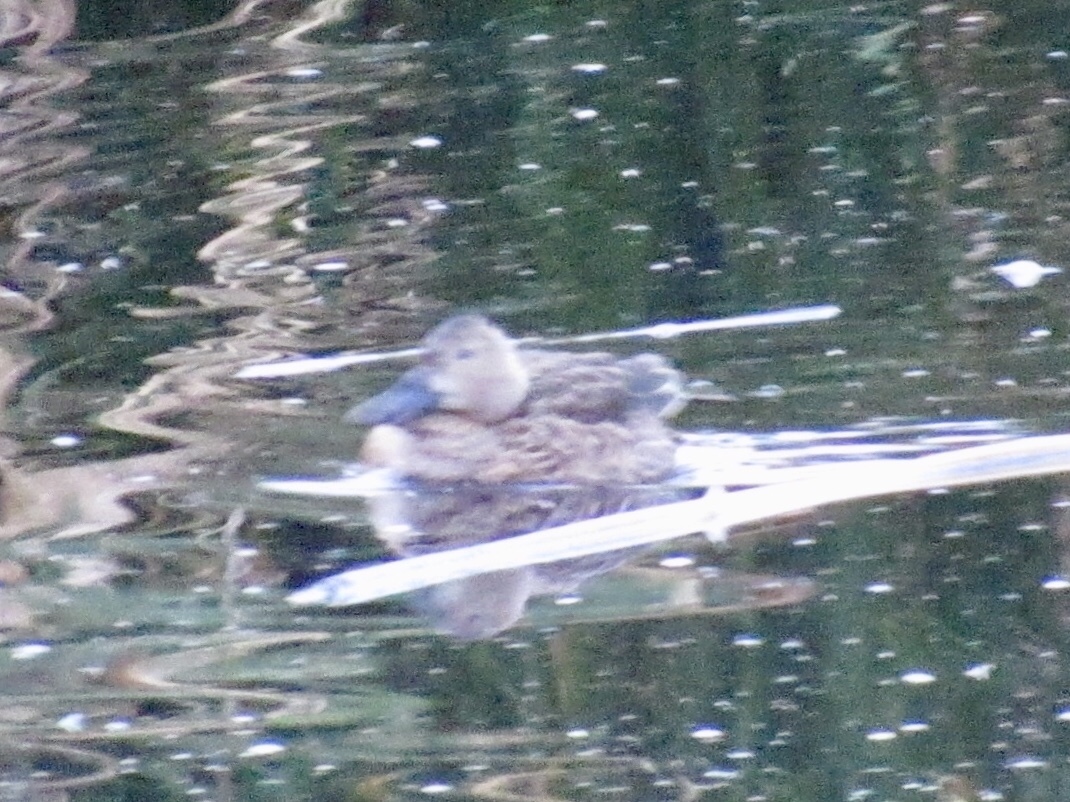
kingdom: Animalia
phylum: Chordata
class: Aves
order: Anseriformes
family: Anatidae
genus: Spatula
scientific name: Spatula cyanoptera
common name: Cinnamon teal
